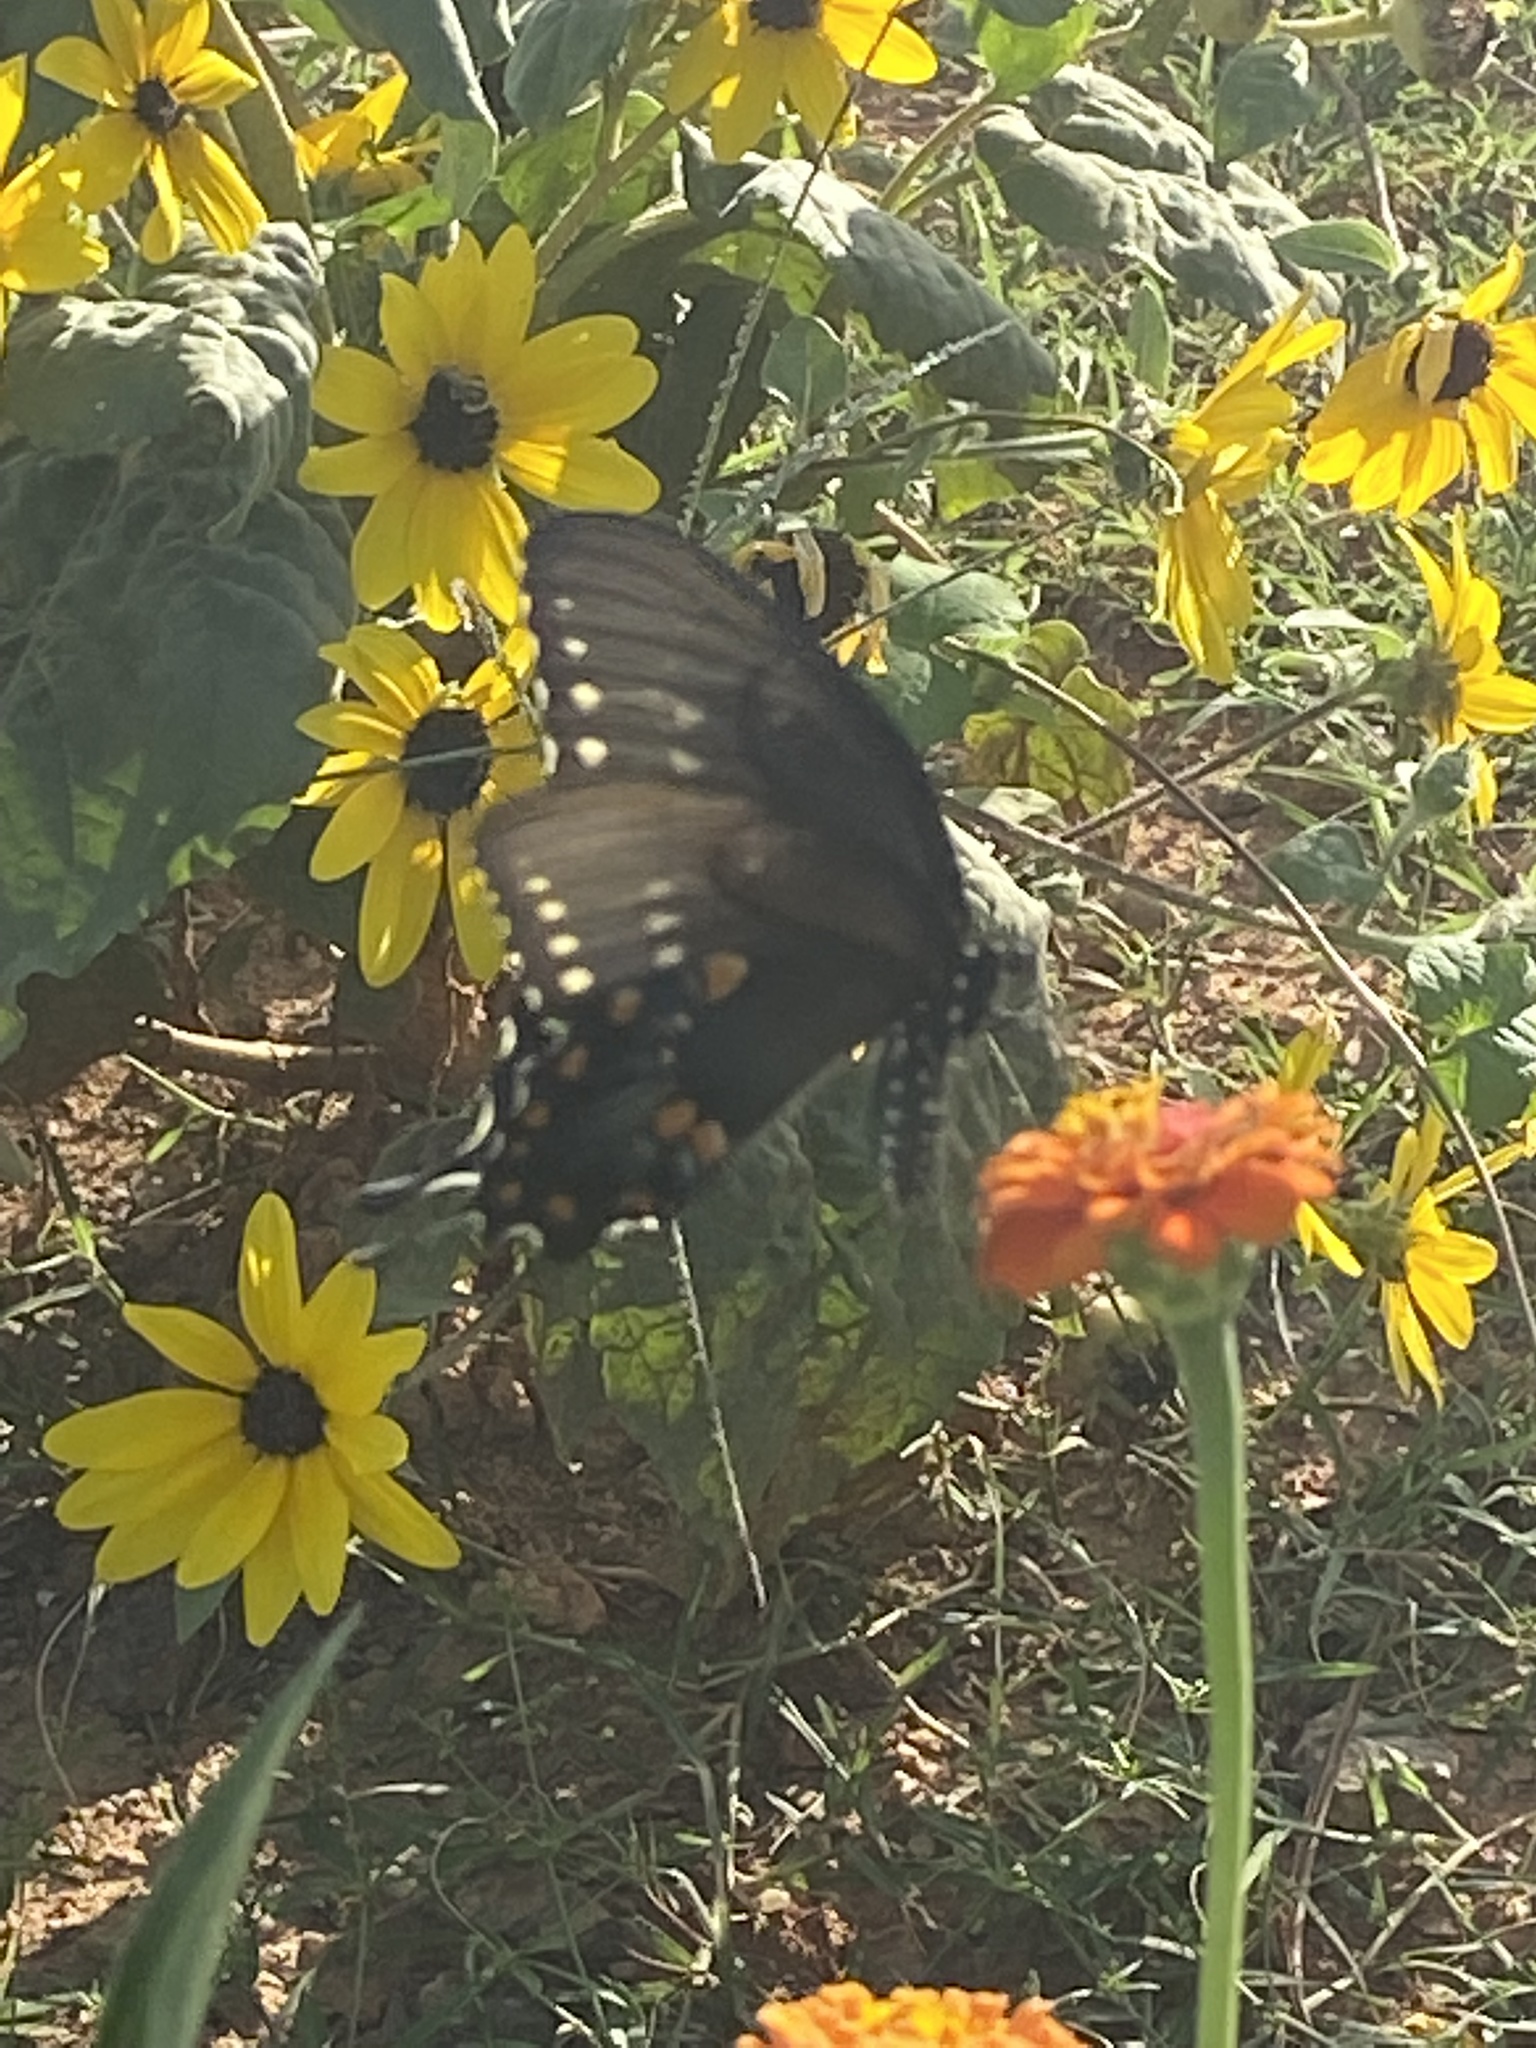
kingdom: Animalia
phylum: Arthropoda
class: Insecta
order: Lepidoptera
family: Papilionidae
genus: Papilio
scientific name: Papilio troilus
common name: Spicebush swallowtail
